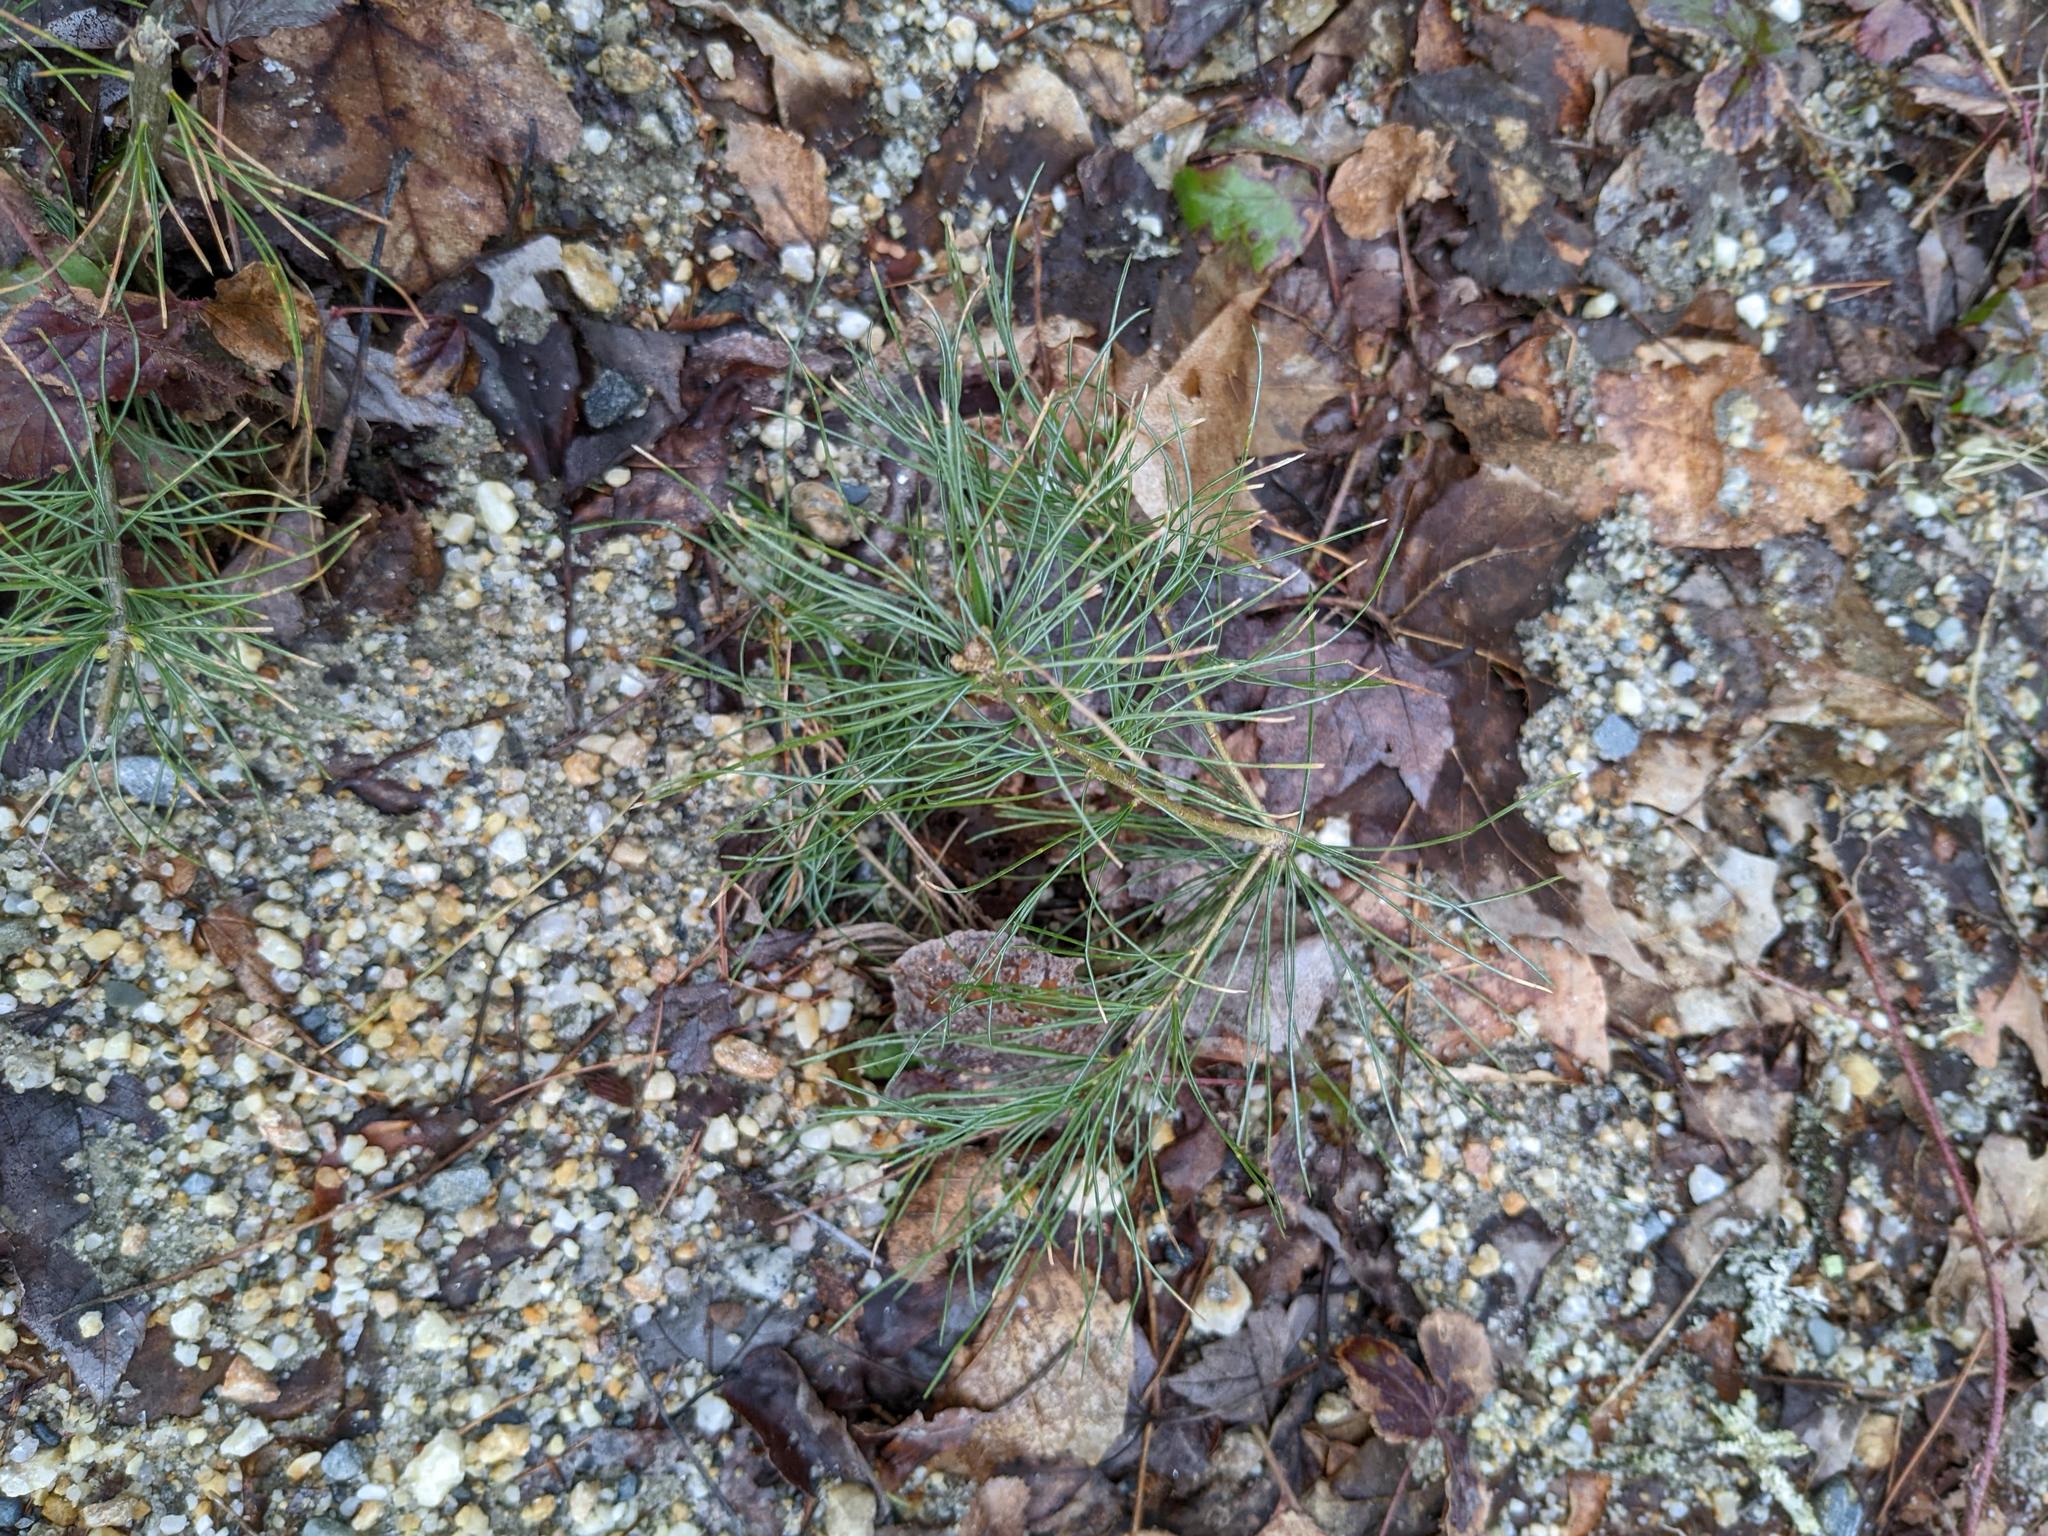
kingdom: Plantae
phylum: Tracheophyta
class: Pinopsida
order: Pinales
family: Pinaceae
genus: Pinus
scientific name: Pinus strobus
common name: Weymouth pine
